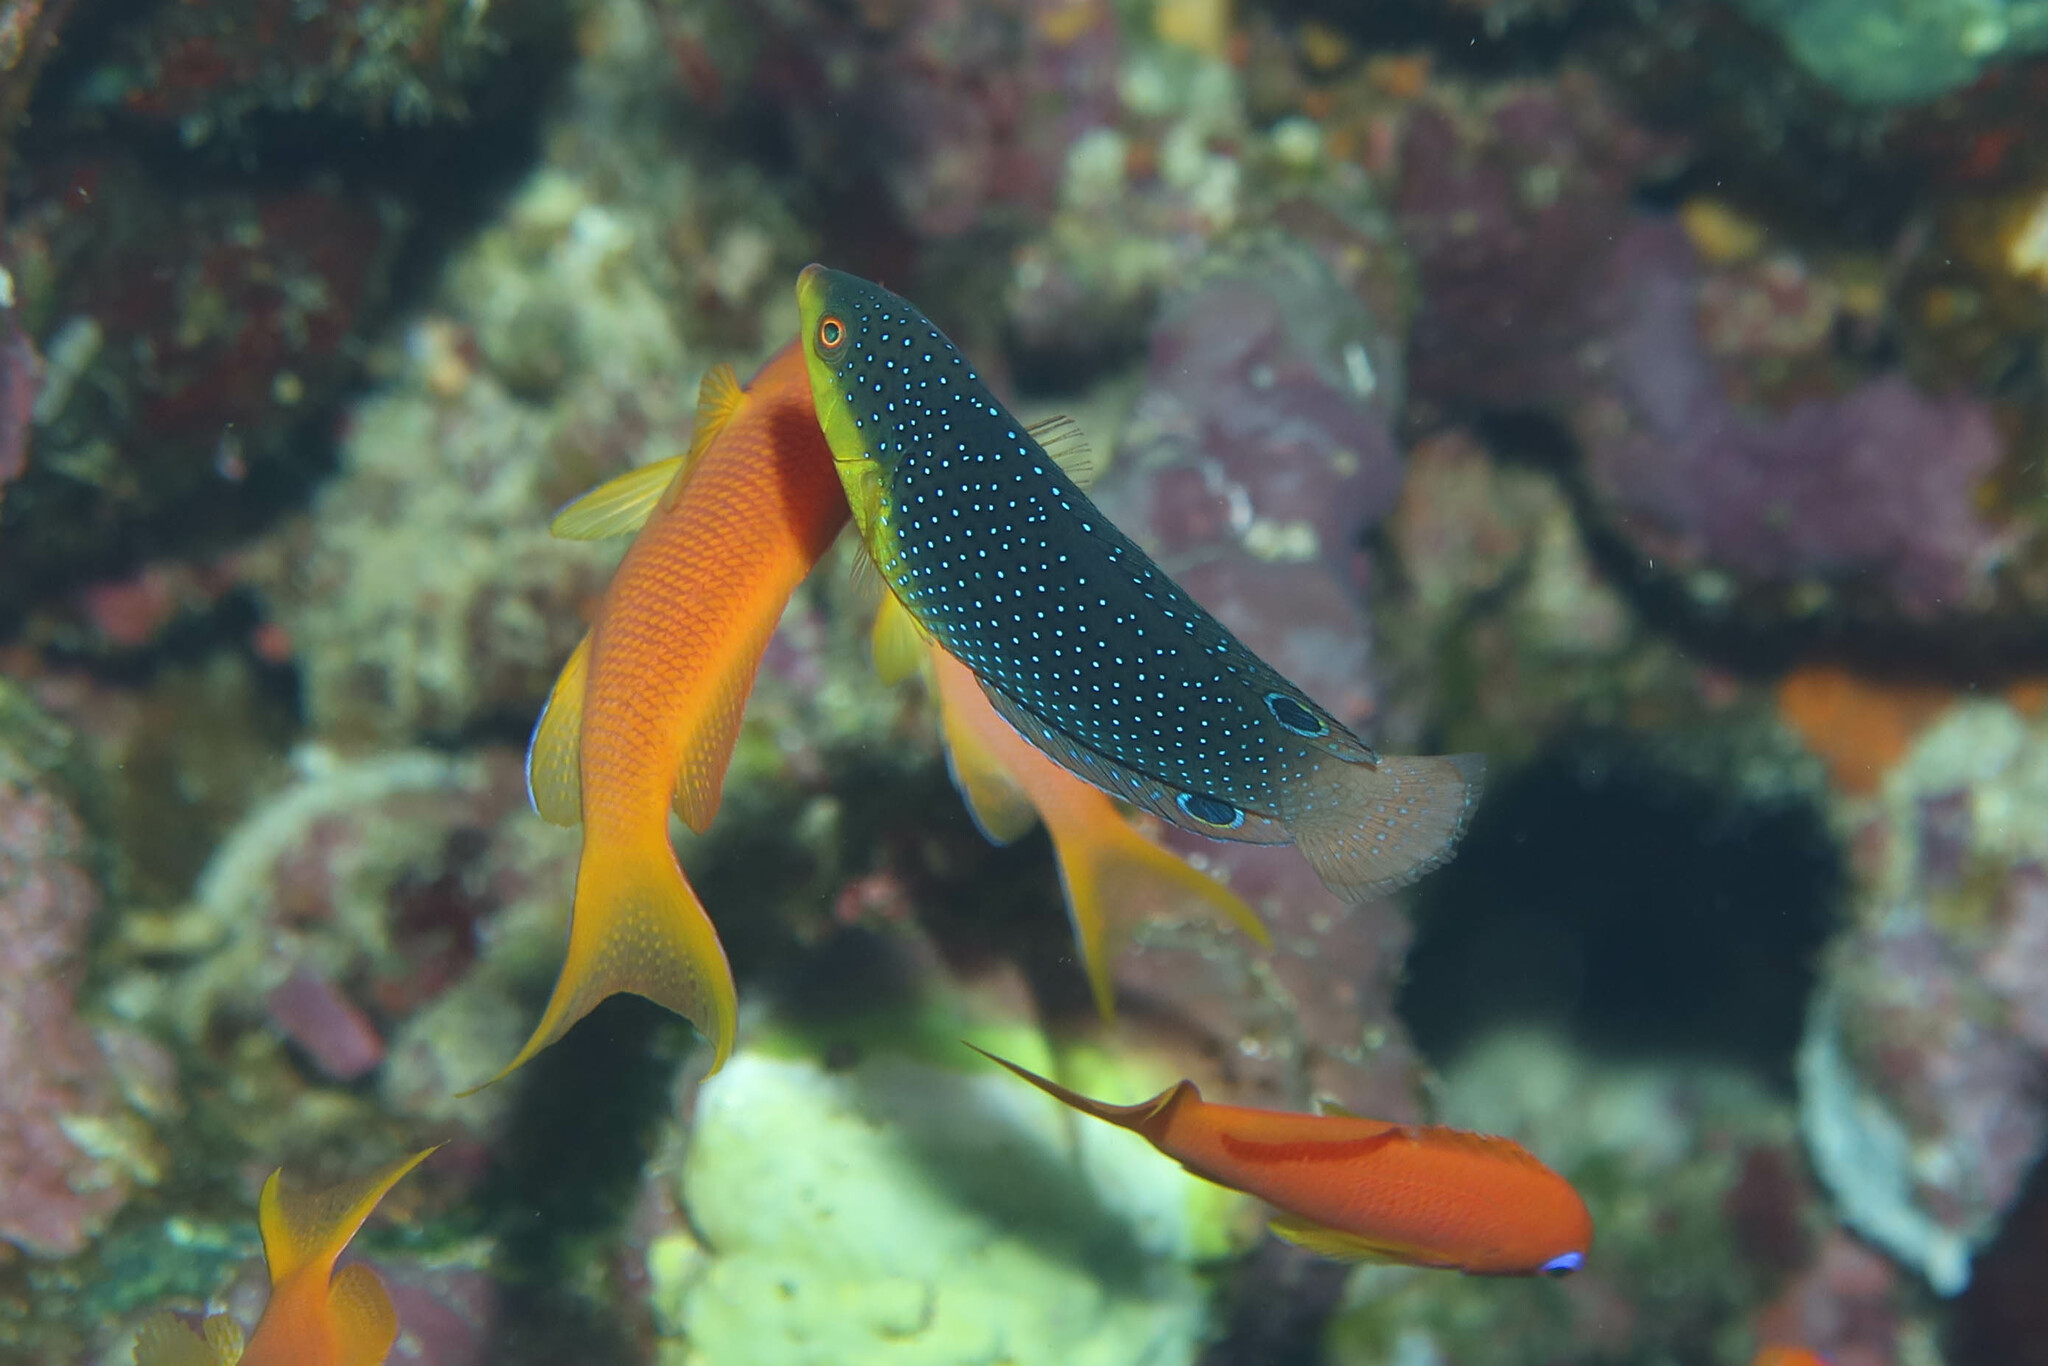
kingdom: Animalia
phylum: Chordata
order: Perciformes
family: Labridae
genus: Anampses
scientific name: Anampses twistii
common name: Yellowbreasted wrasse
